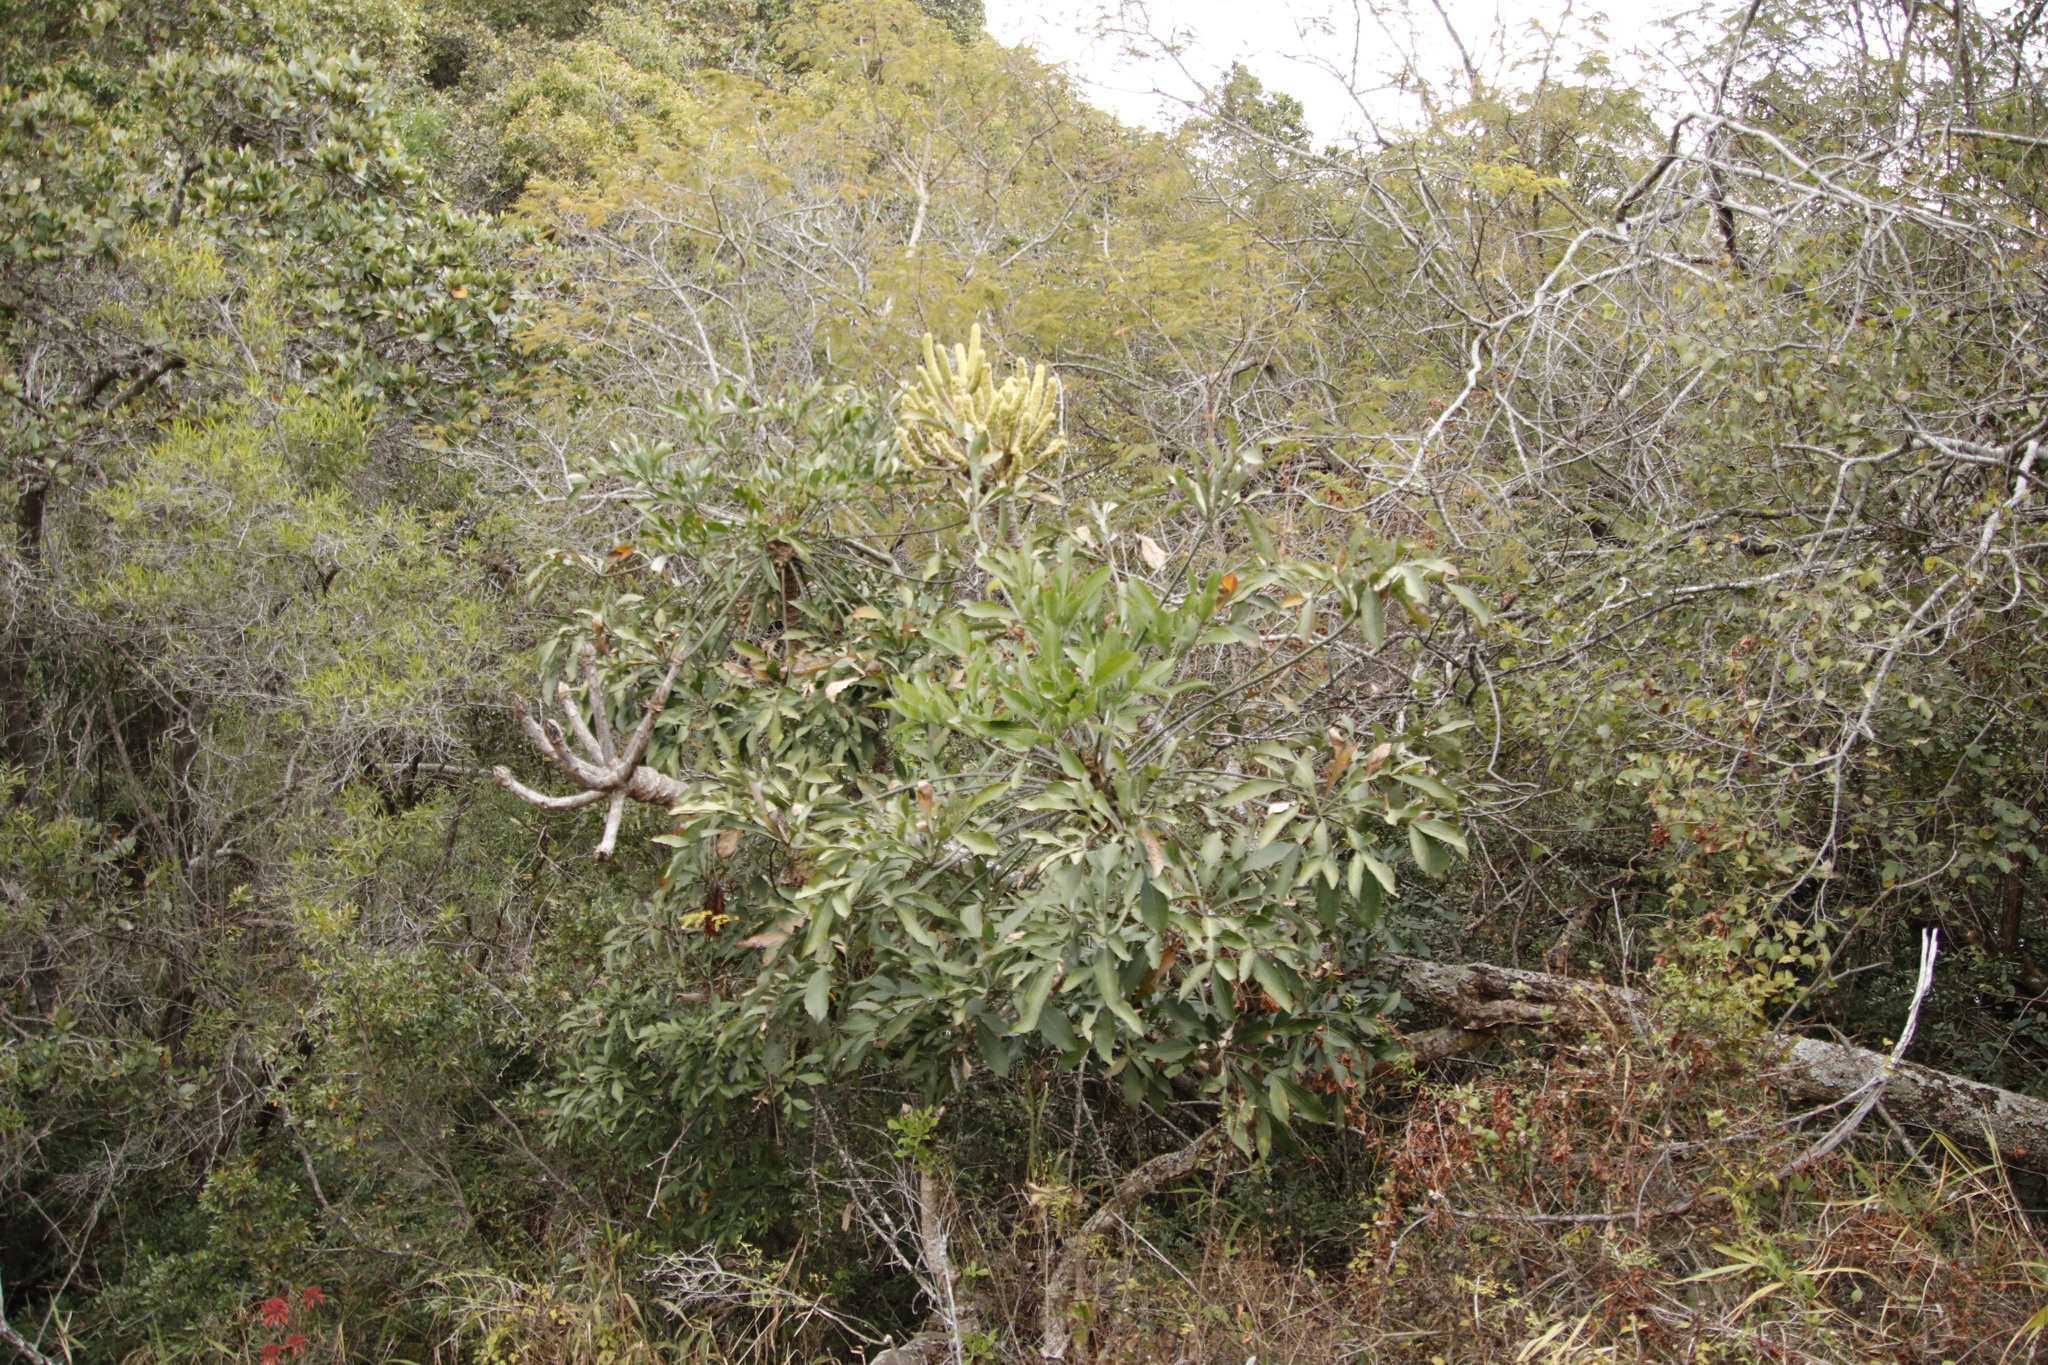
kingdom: Plantae
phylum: Tracheophyta
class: Magnoliopsida
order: Apiales
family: Araliaceae
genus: Cussonia
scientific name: Cussonia spicata
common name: Common cabbagetree
